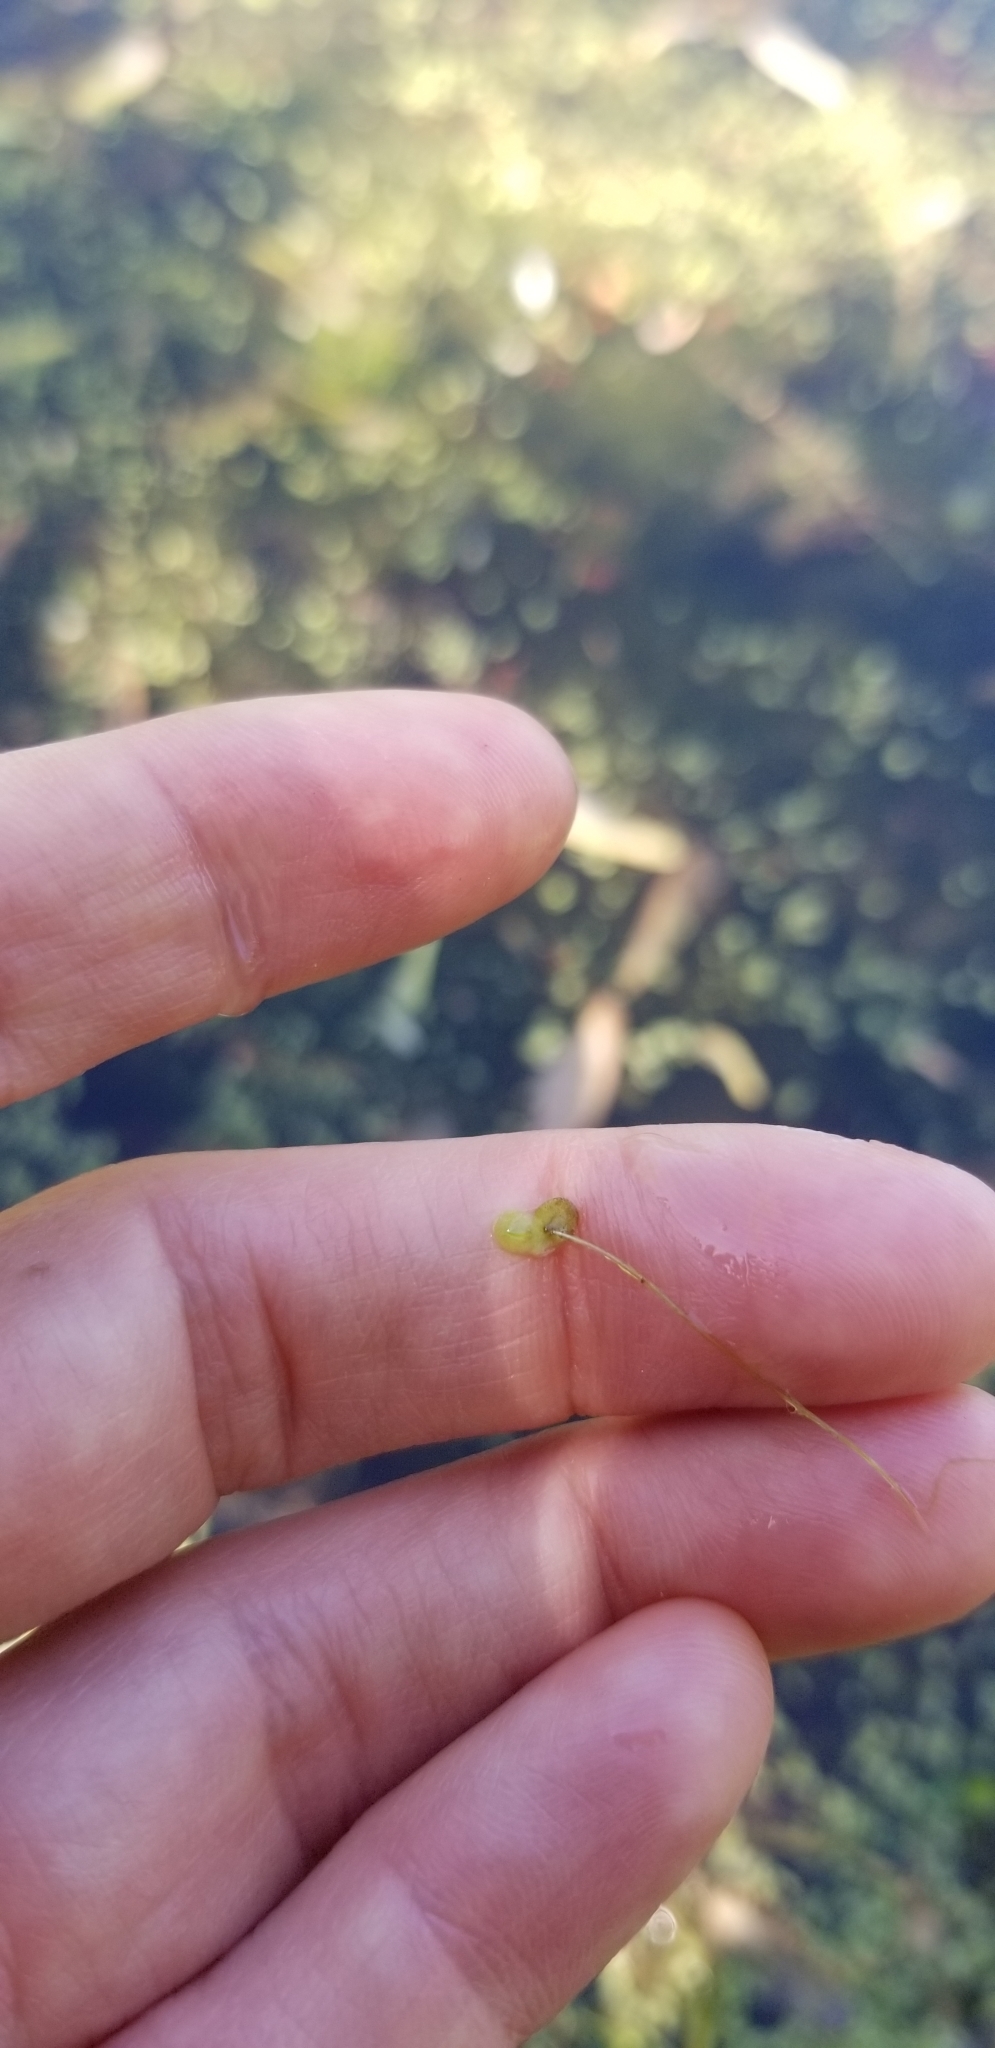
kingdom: Plantae
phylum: Tracheophyta
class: Liliopsida
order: Alismatales
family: Araceae
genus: Lemna
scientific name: Lemna minor
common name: Common duckweed
